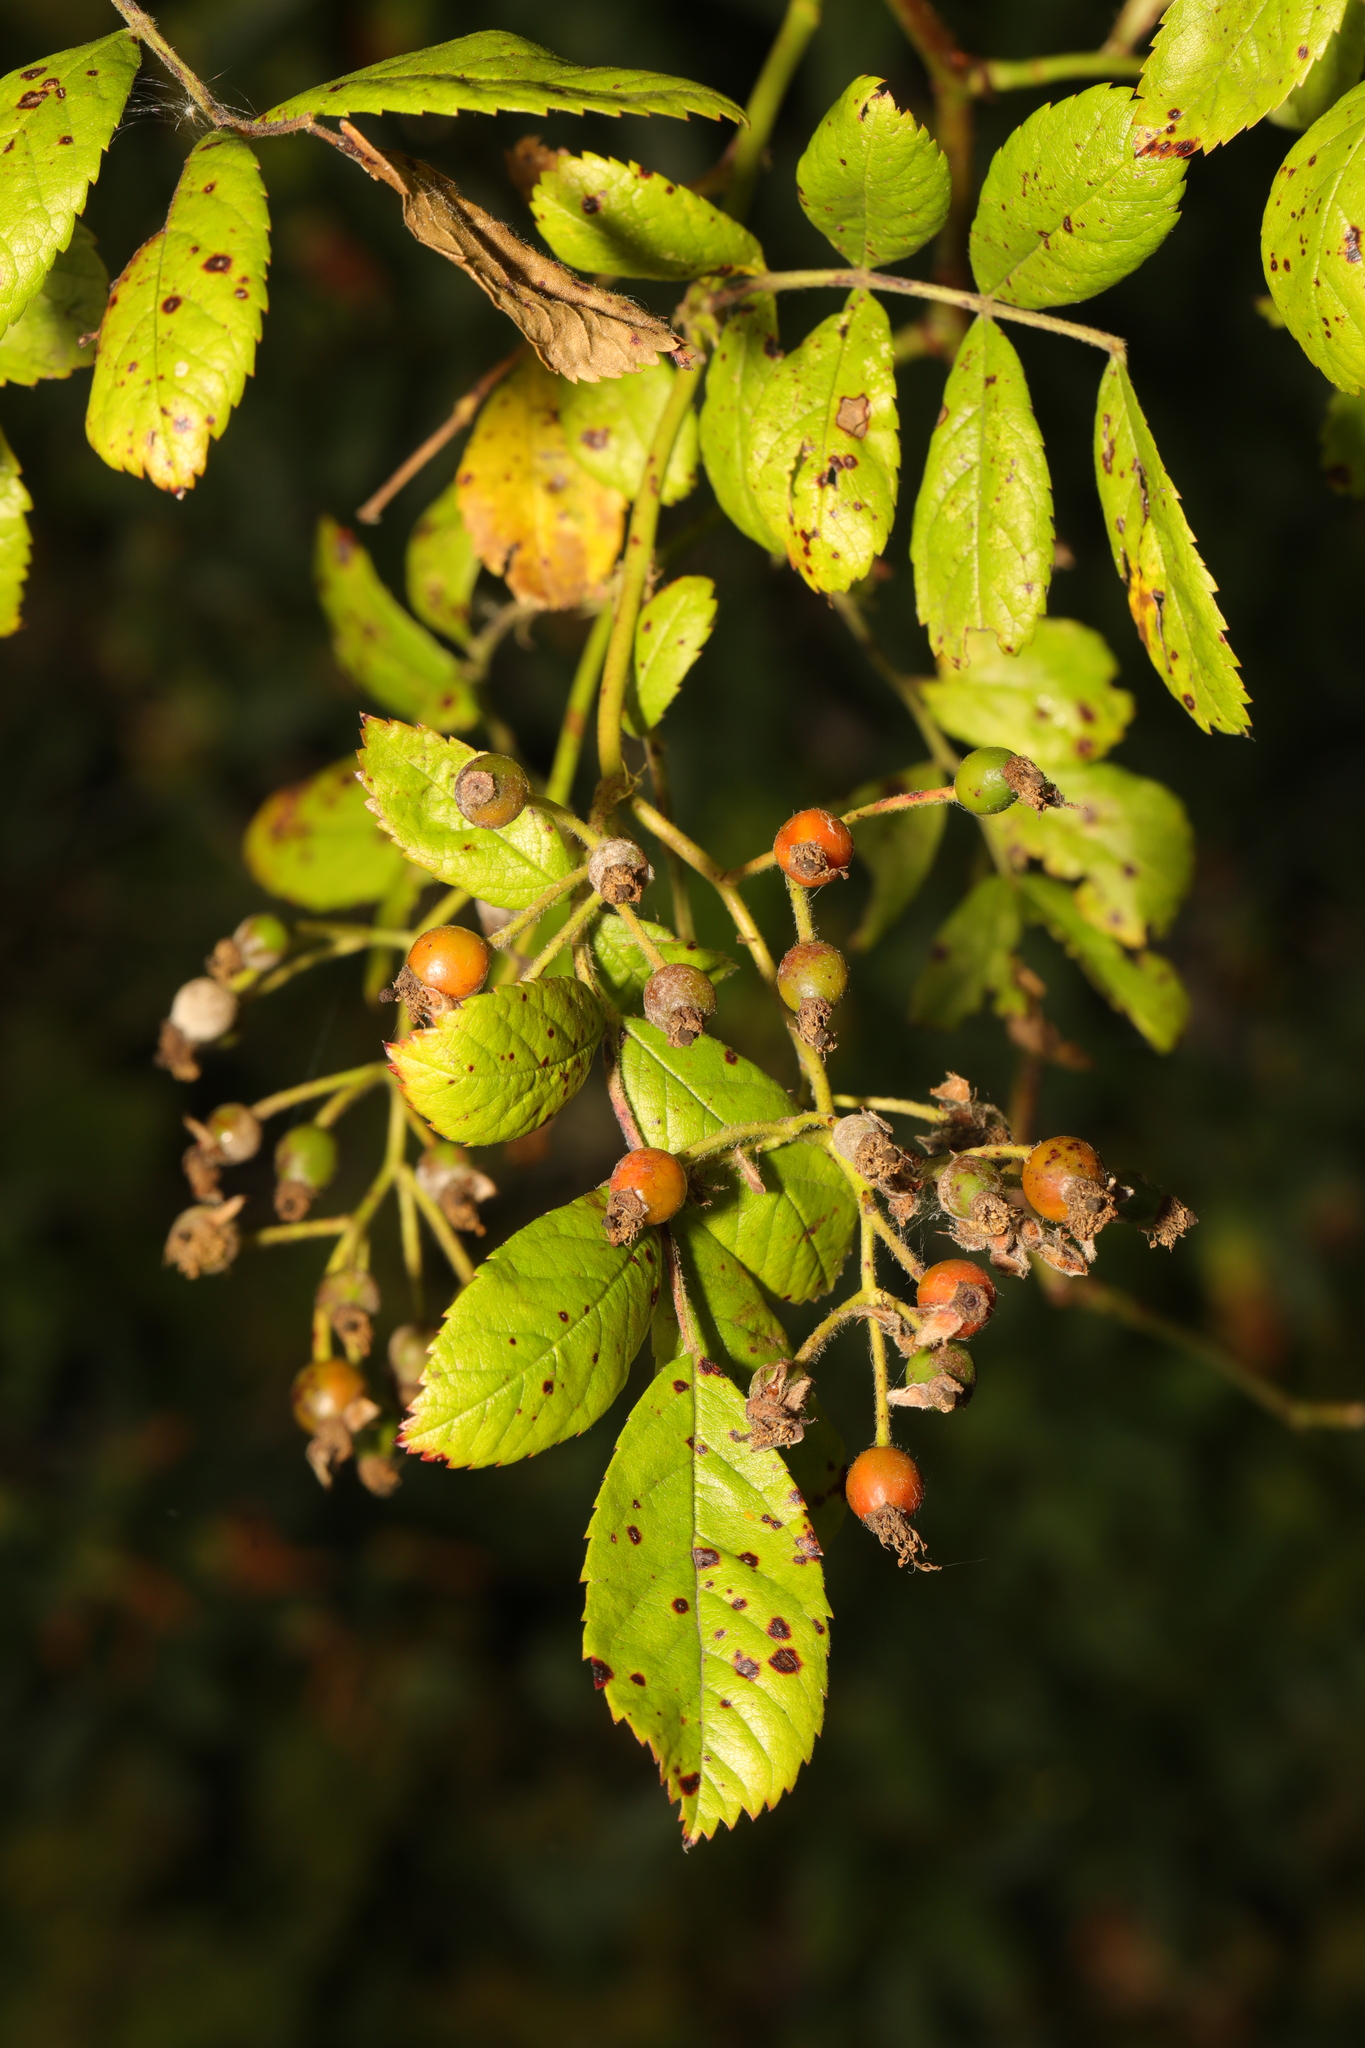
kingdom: Plantae
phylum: Tracheophyta
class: Magnoliopsida
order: Rosales
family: Rosaceae
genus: Rosa
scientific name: Rosa multiflora
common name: Multiflora rose
